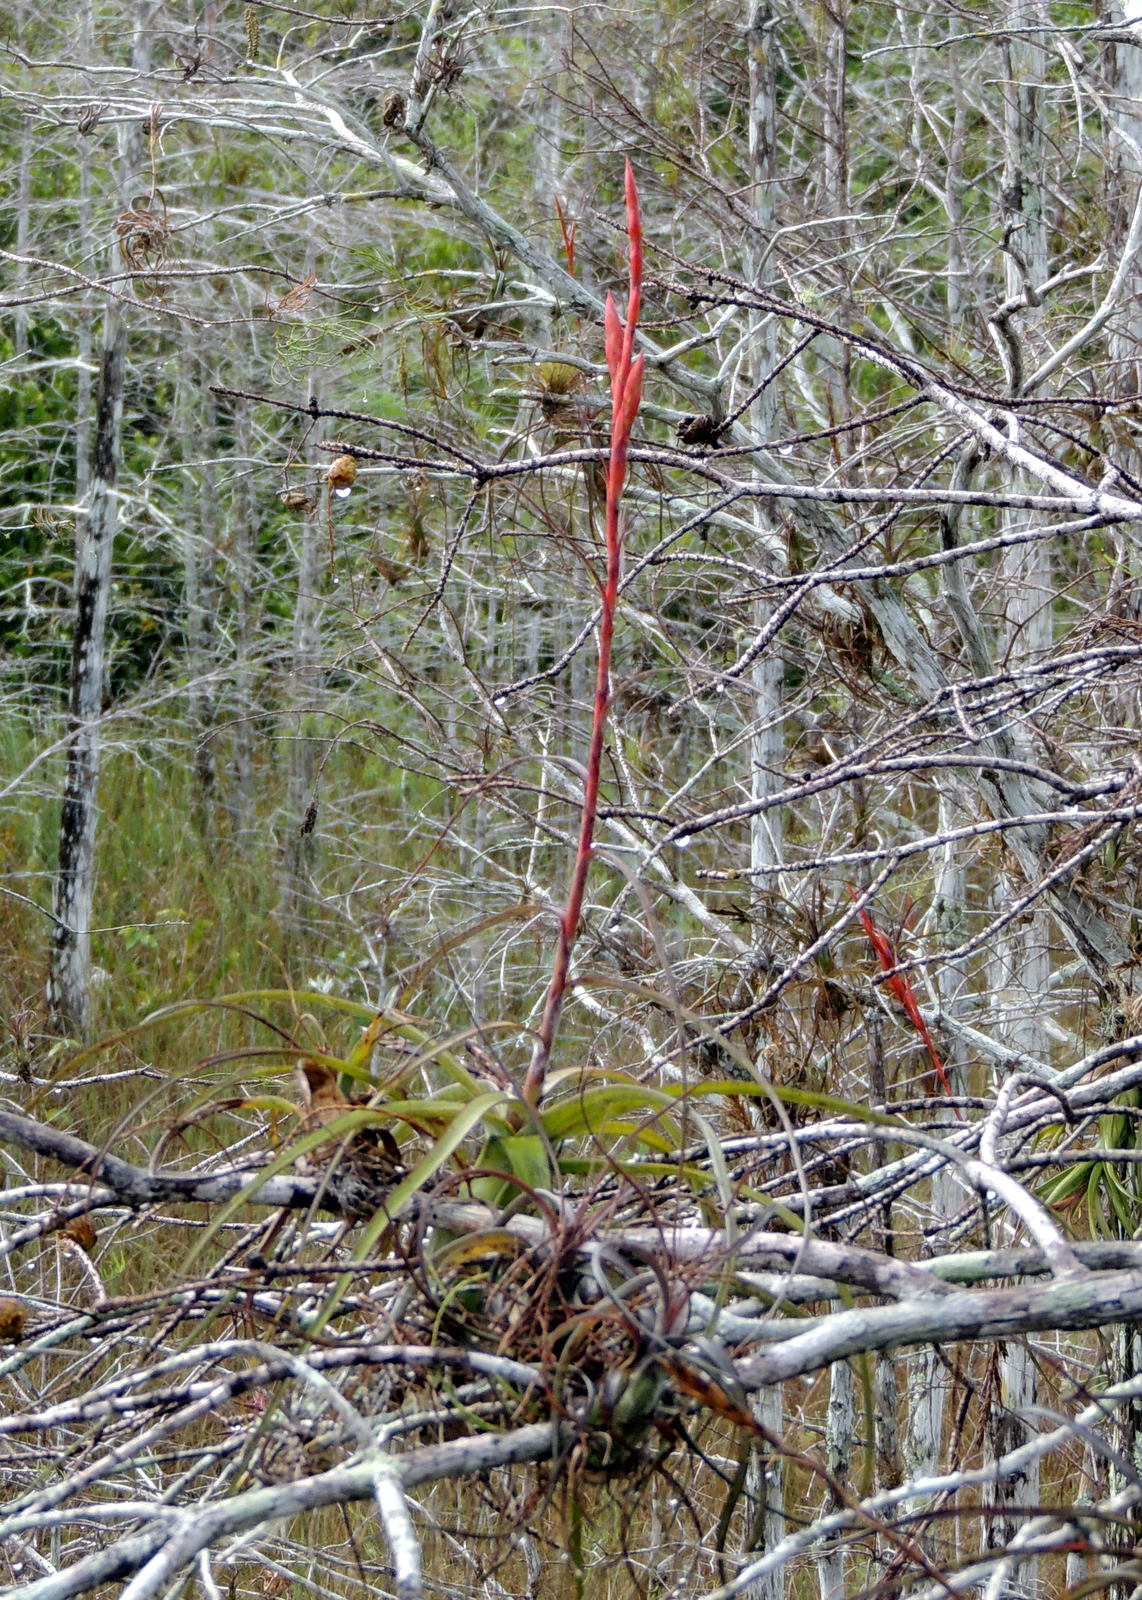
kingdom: Plantae
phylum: Tracheophyta
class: Liliopsida
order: Poales
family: Bromeliaceae
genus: Tillandsia
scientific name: Tillandsia balbisiana
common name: Northern needleleaf
